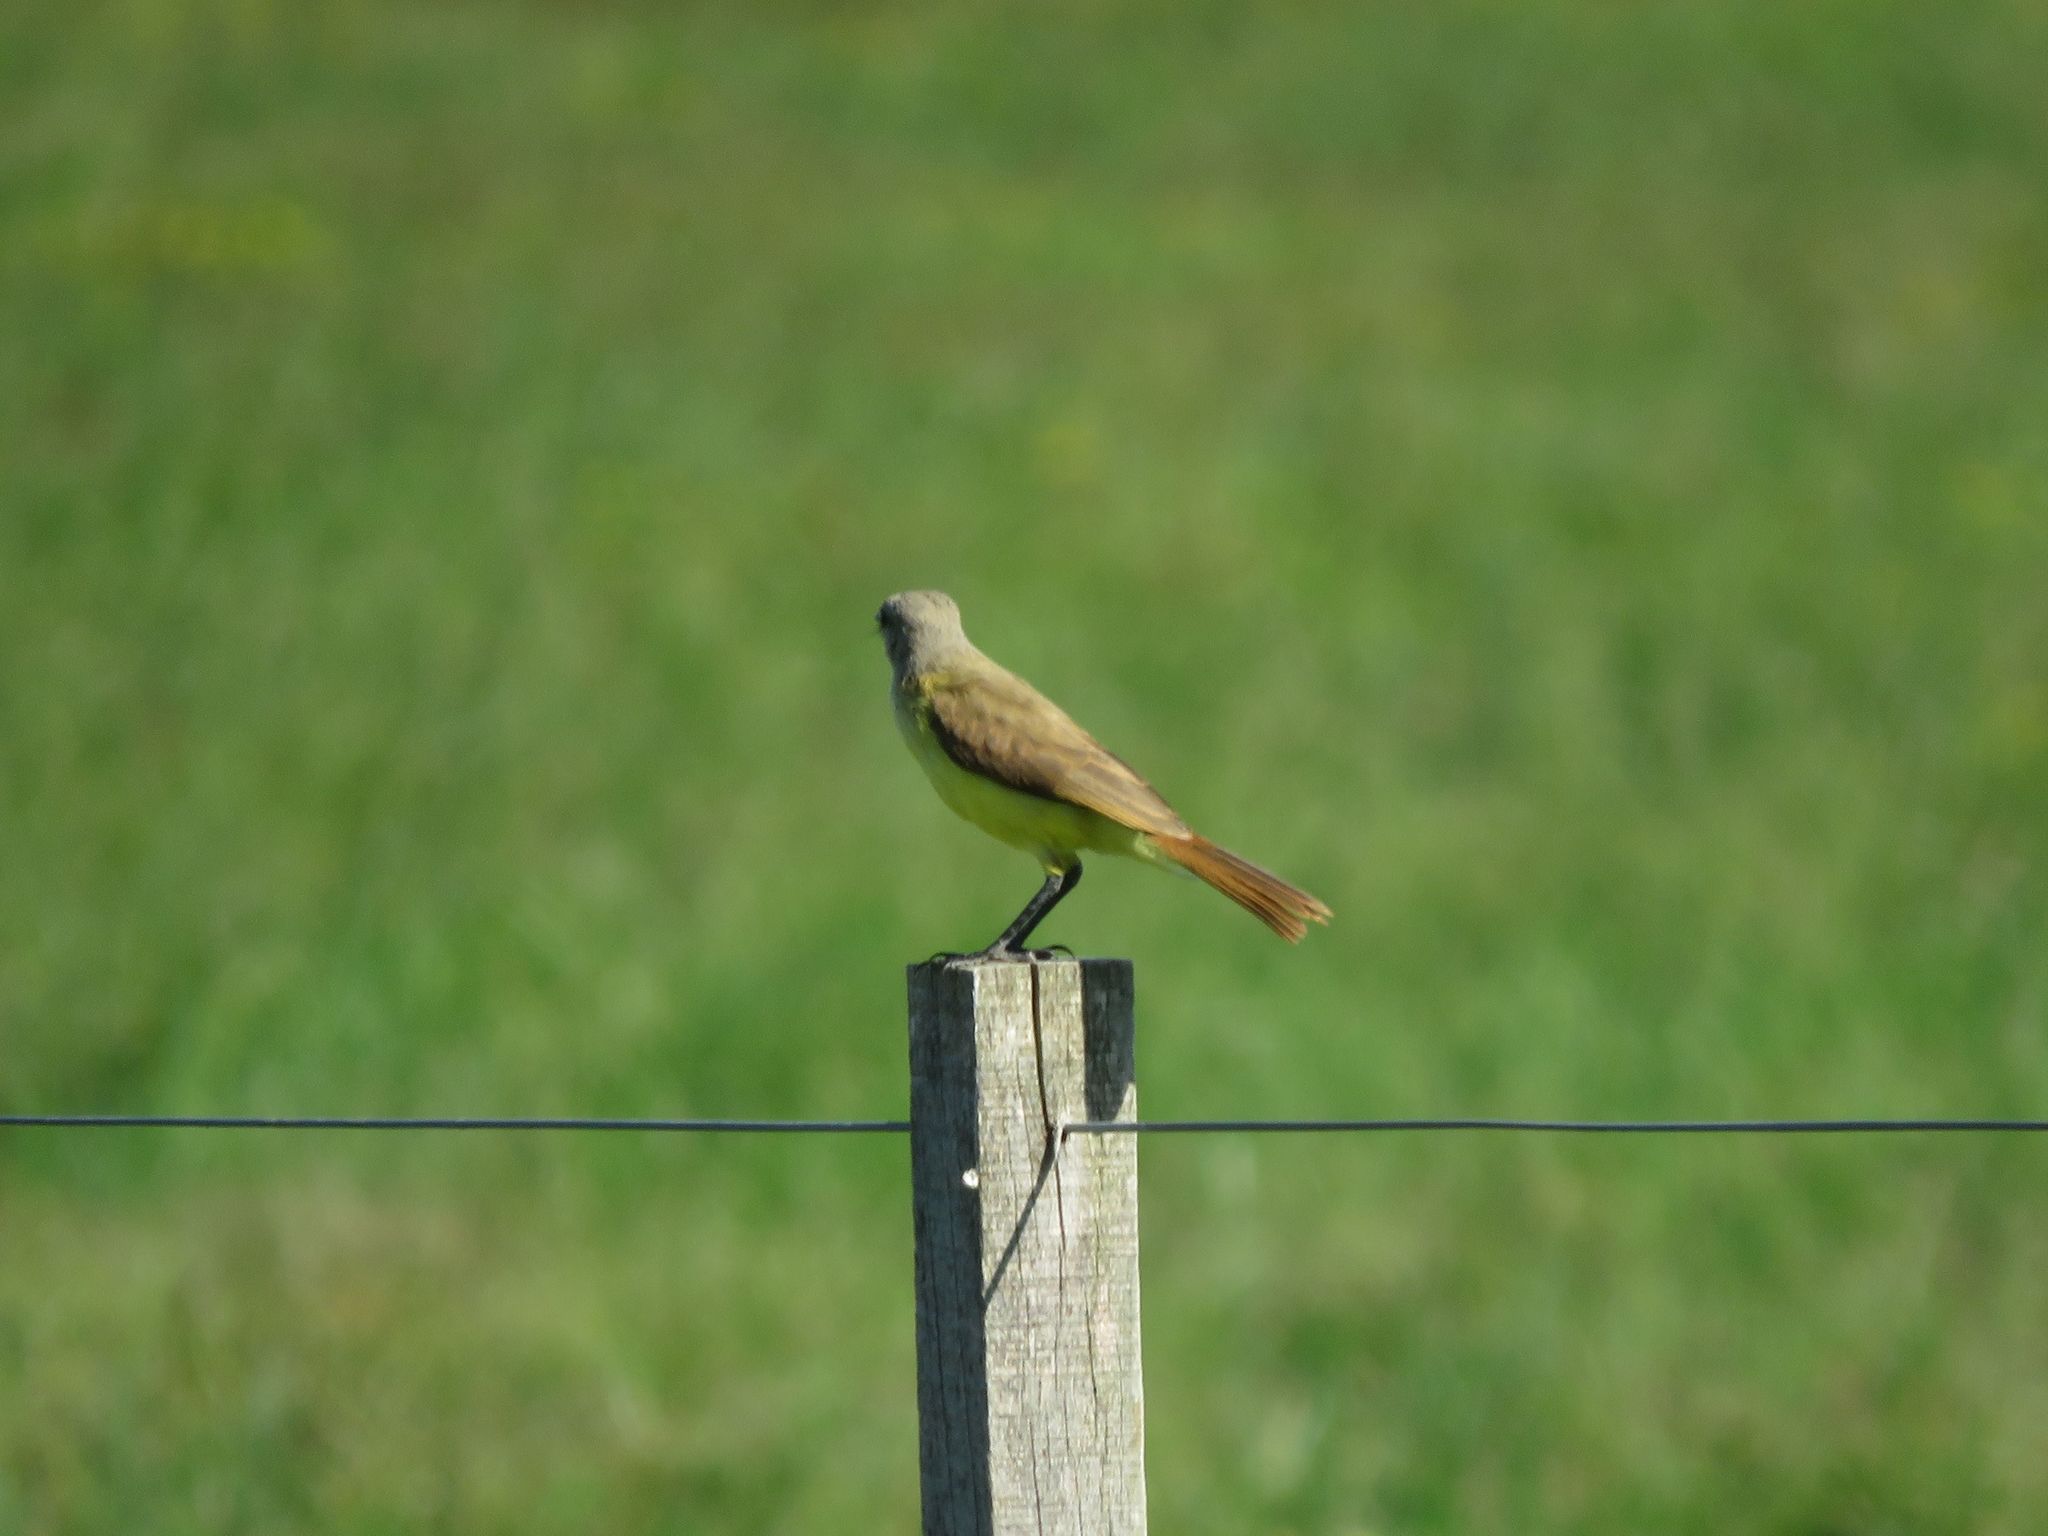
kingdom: Animalia
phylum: Chordata
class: Aves
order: Passeriformes
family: Tyrannidae
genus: Machetornis
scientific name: Machetornis rixosa
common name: Cattle tyrant
